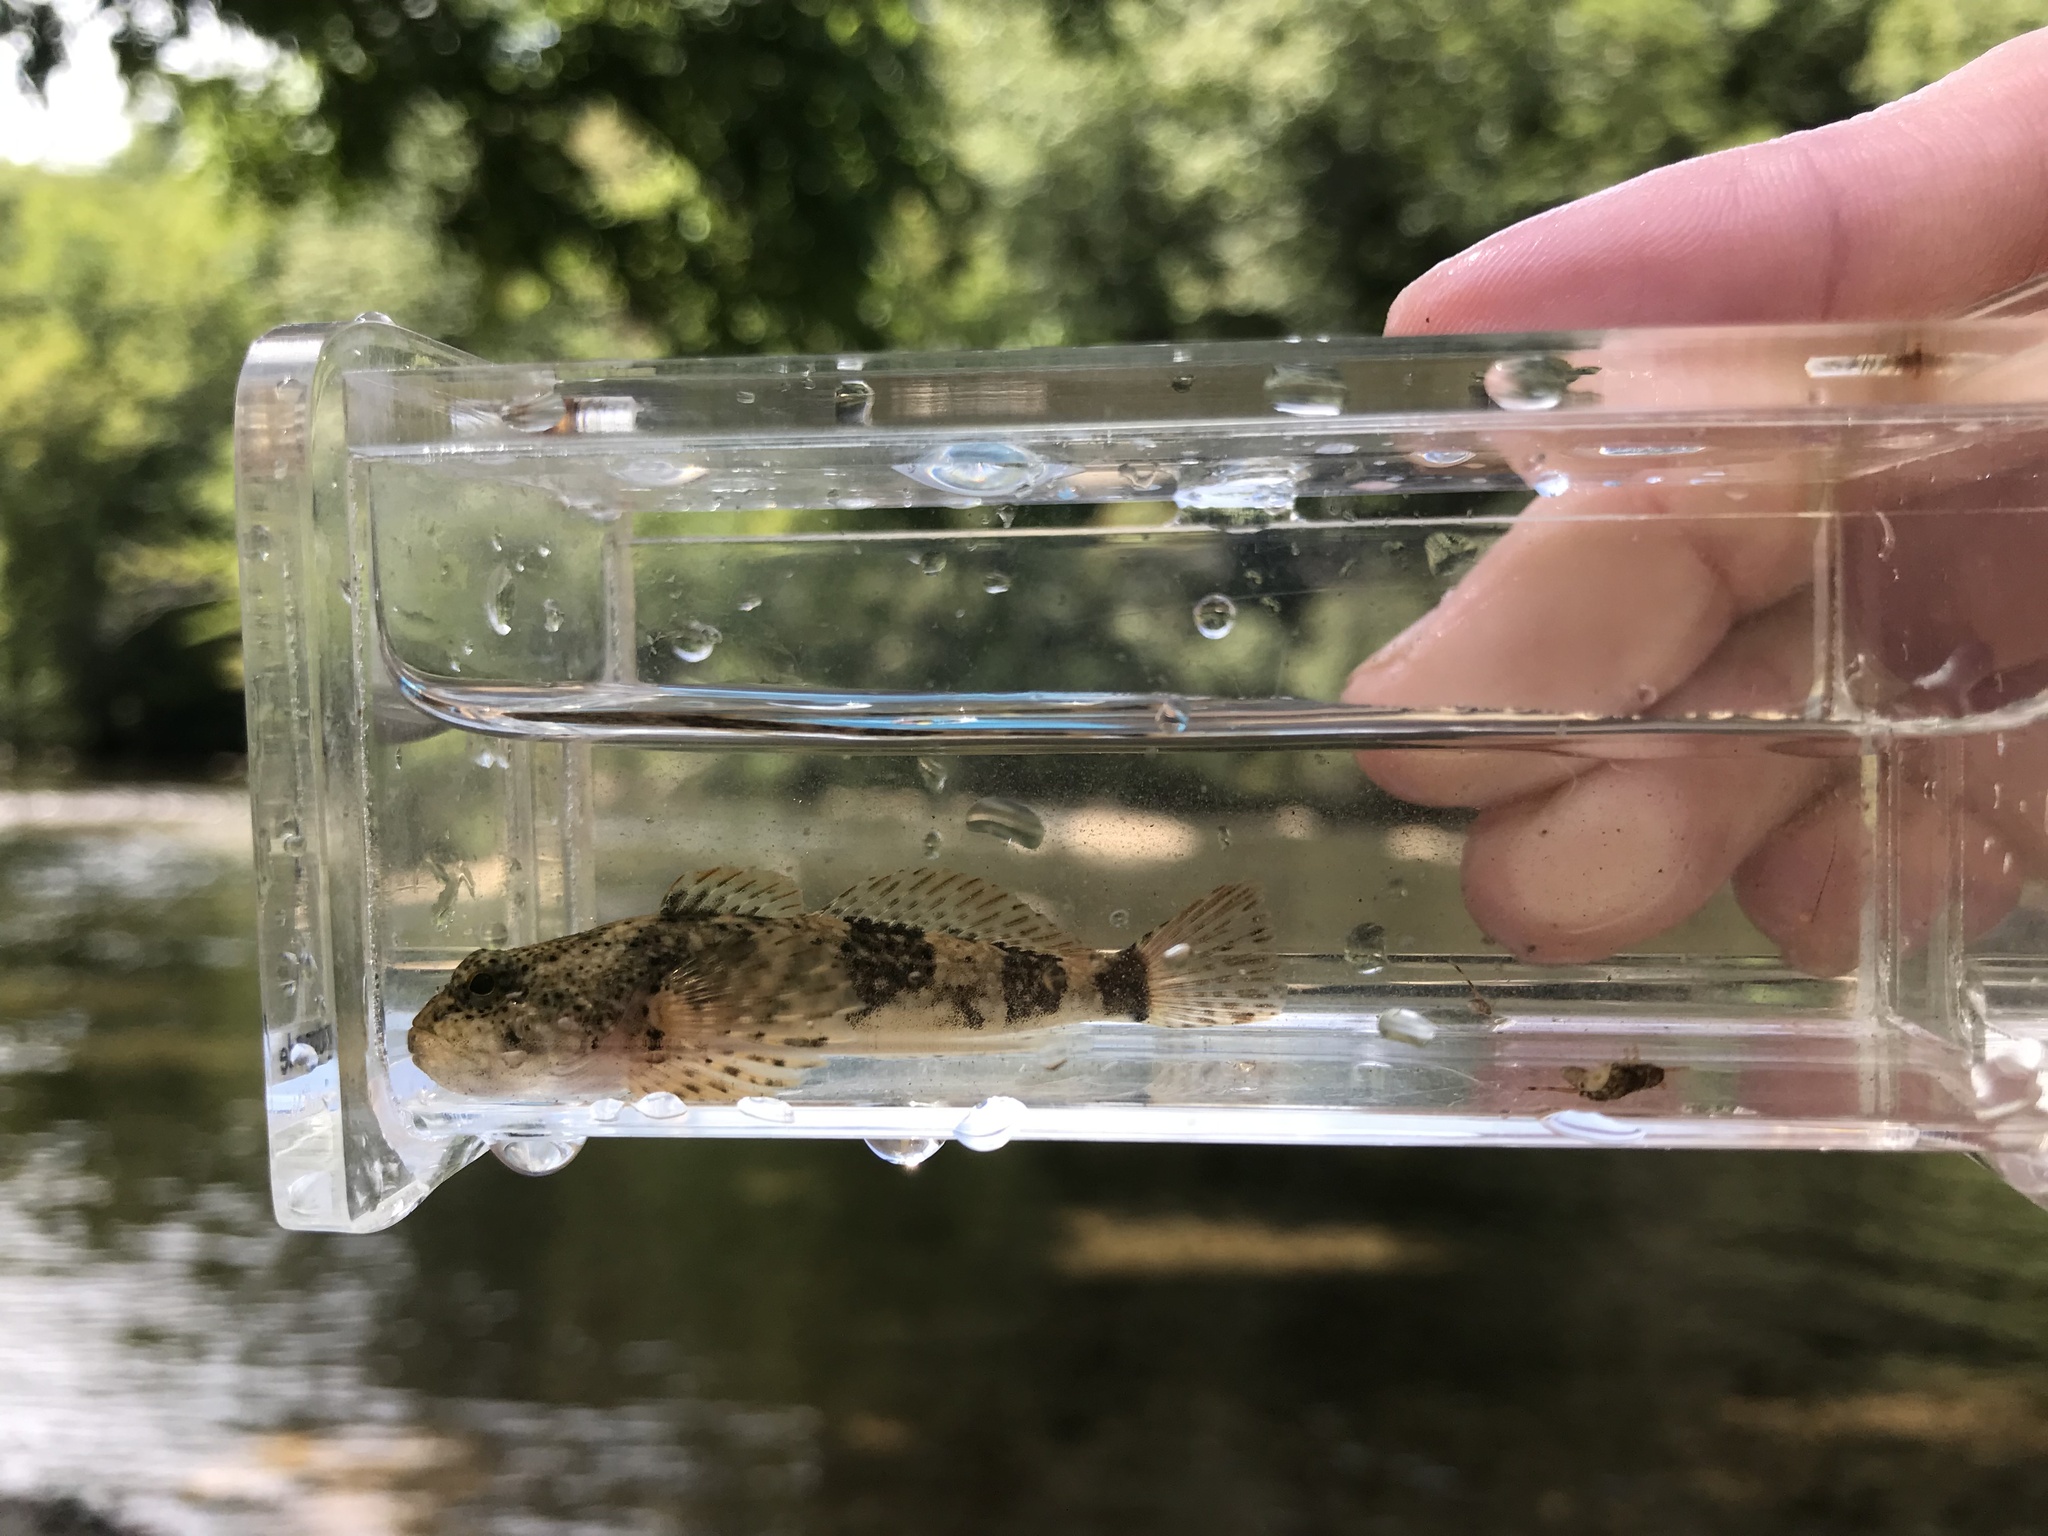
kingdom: Animalia
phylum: Chordata
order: Scorpaeniformes
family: Cottidae
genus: Cottus
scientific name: Cottus bairdii
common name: Mottled sculpin
